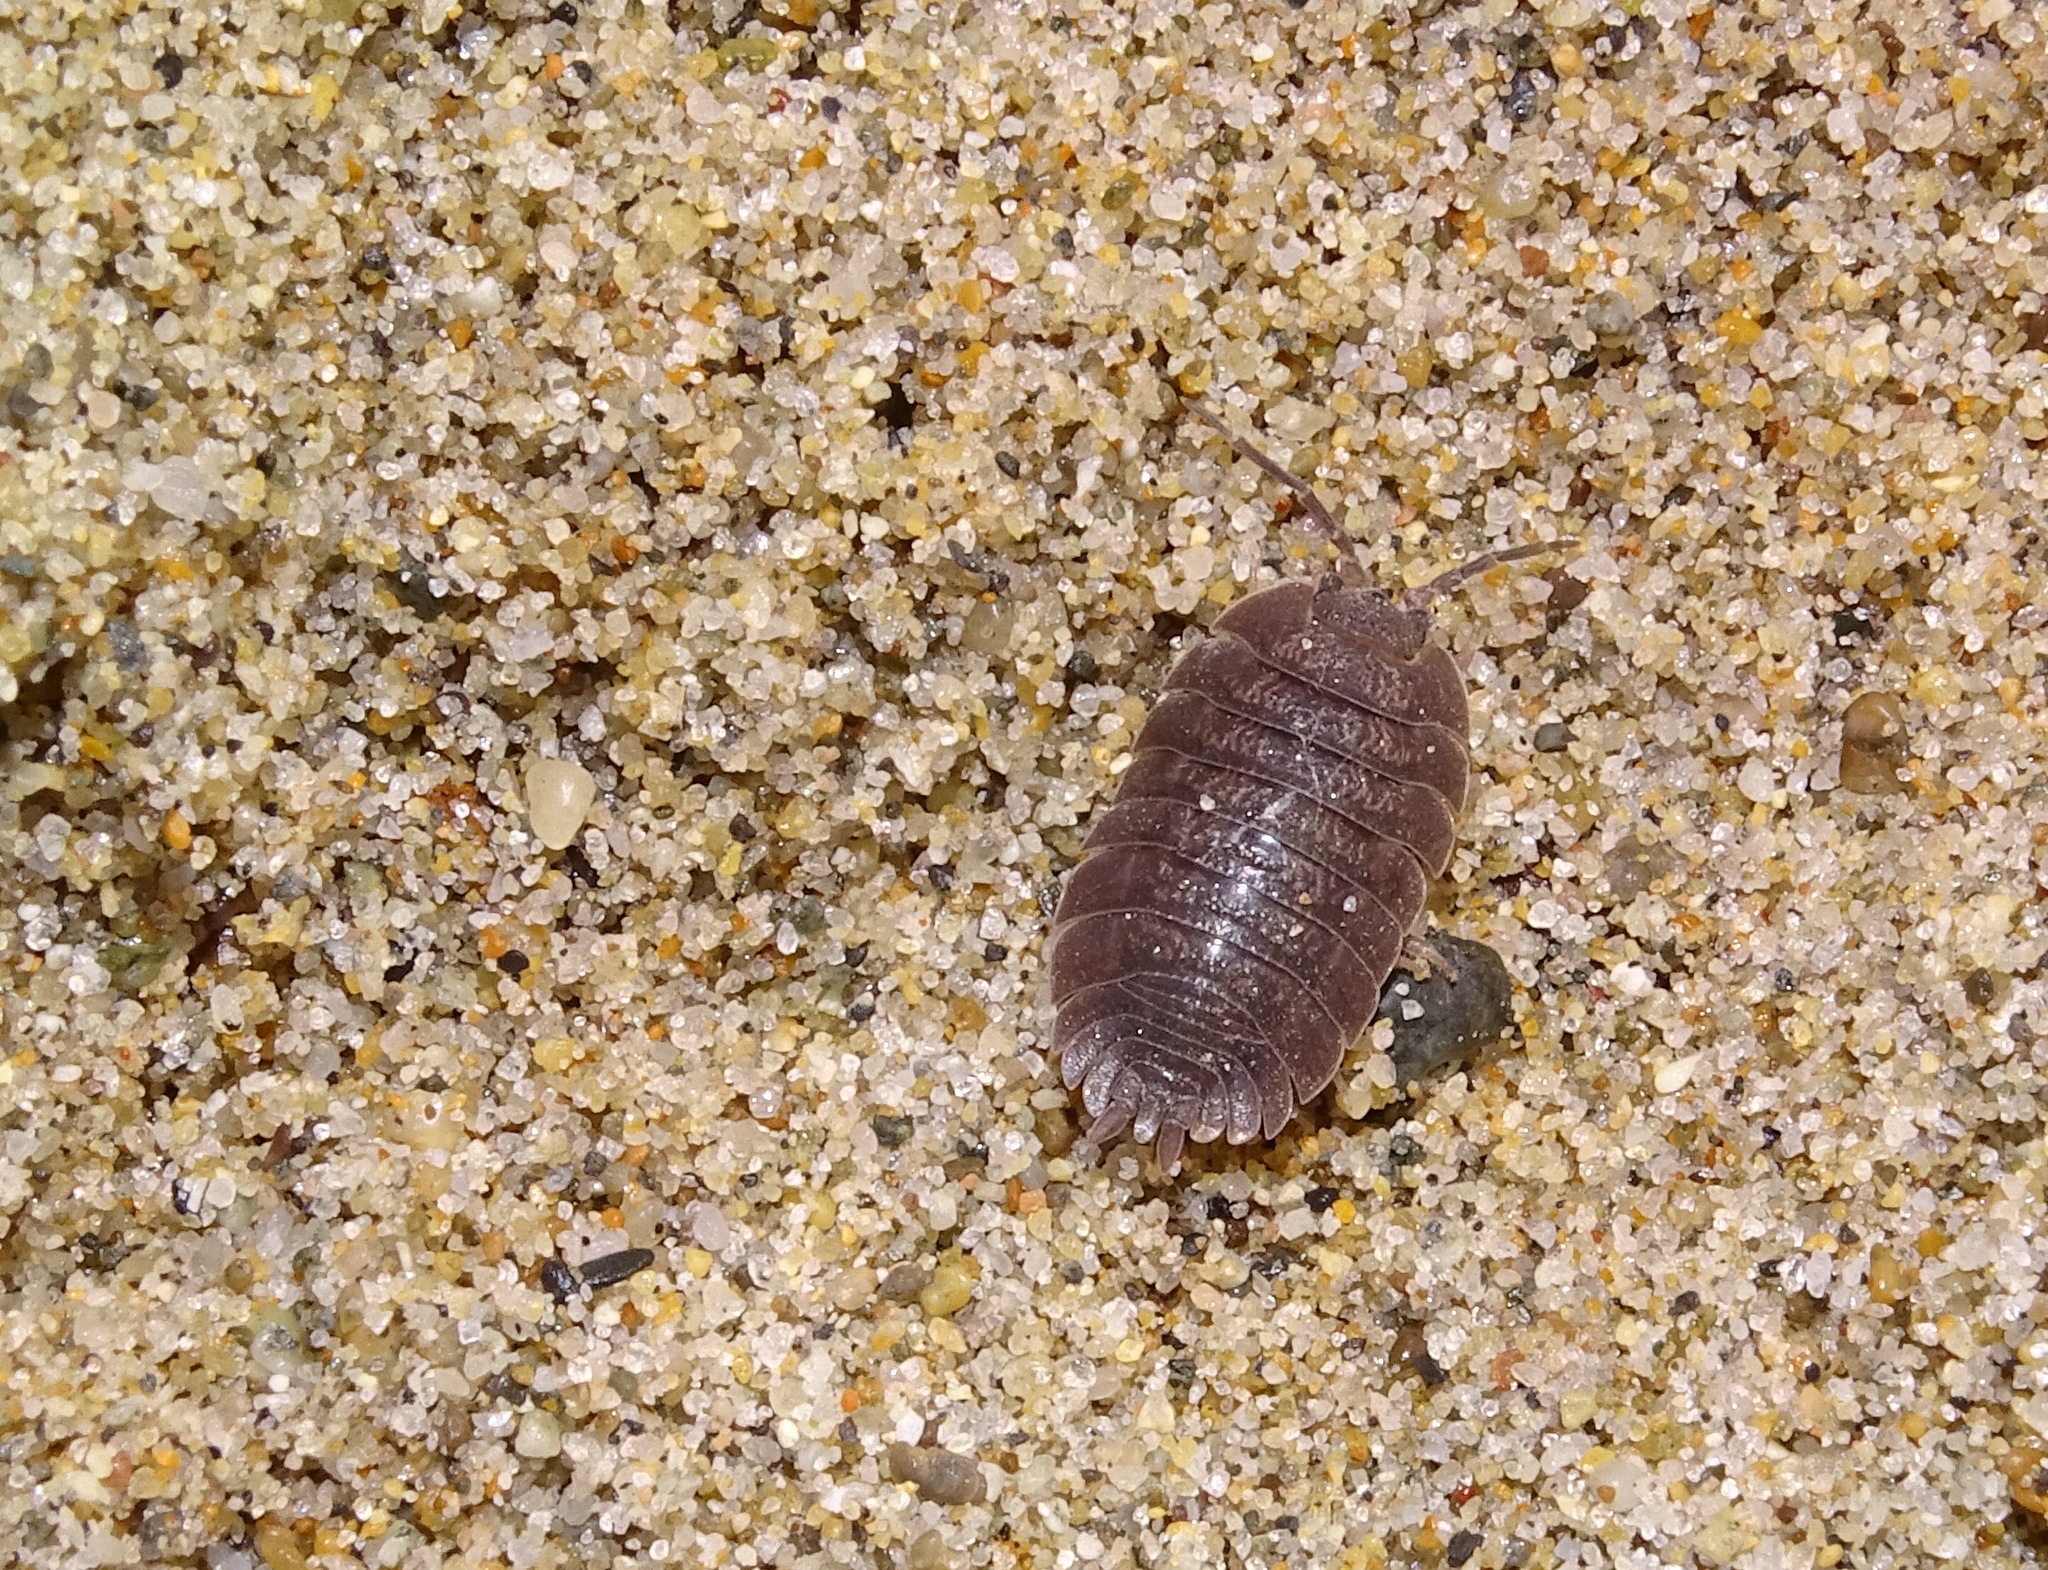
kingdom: Animalia
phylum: Arthropoda
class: Malacostraca
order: Isopoda
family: Porcellionidae
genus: Porcellio
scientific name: Porcellio dilatatus
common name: Isopod
